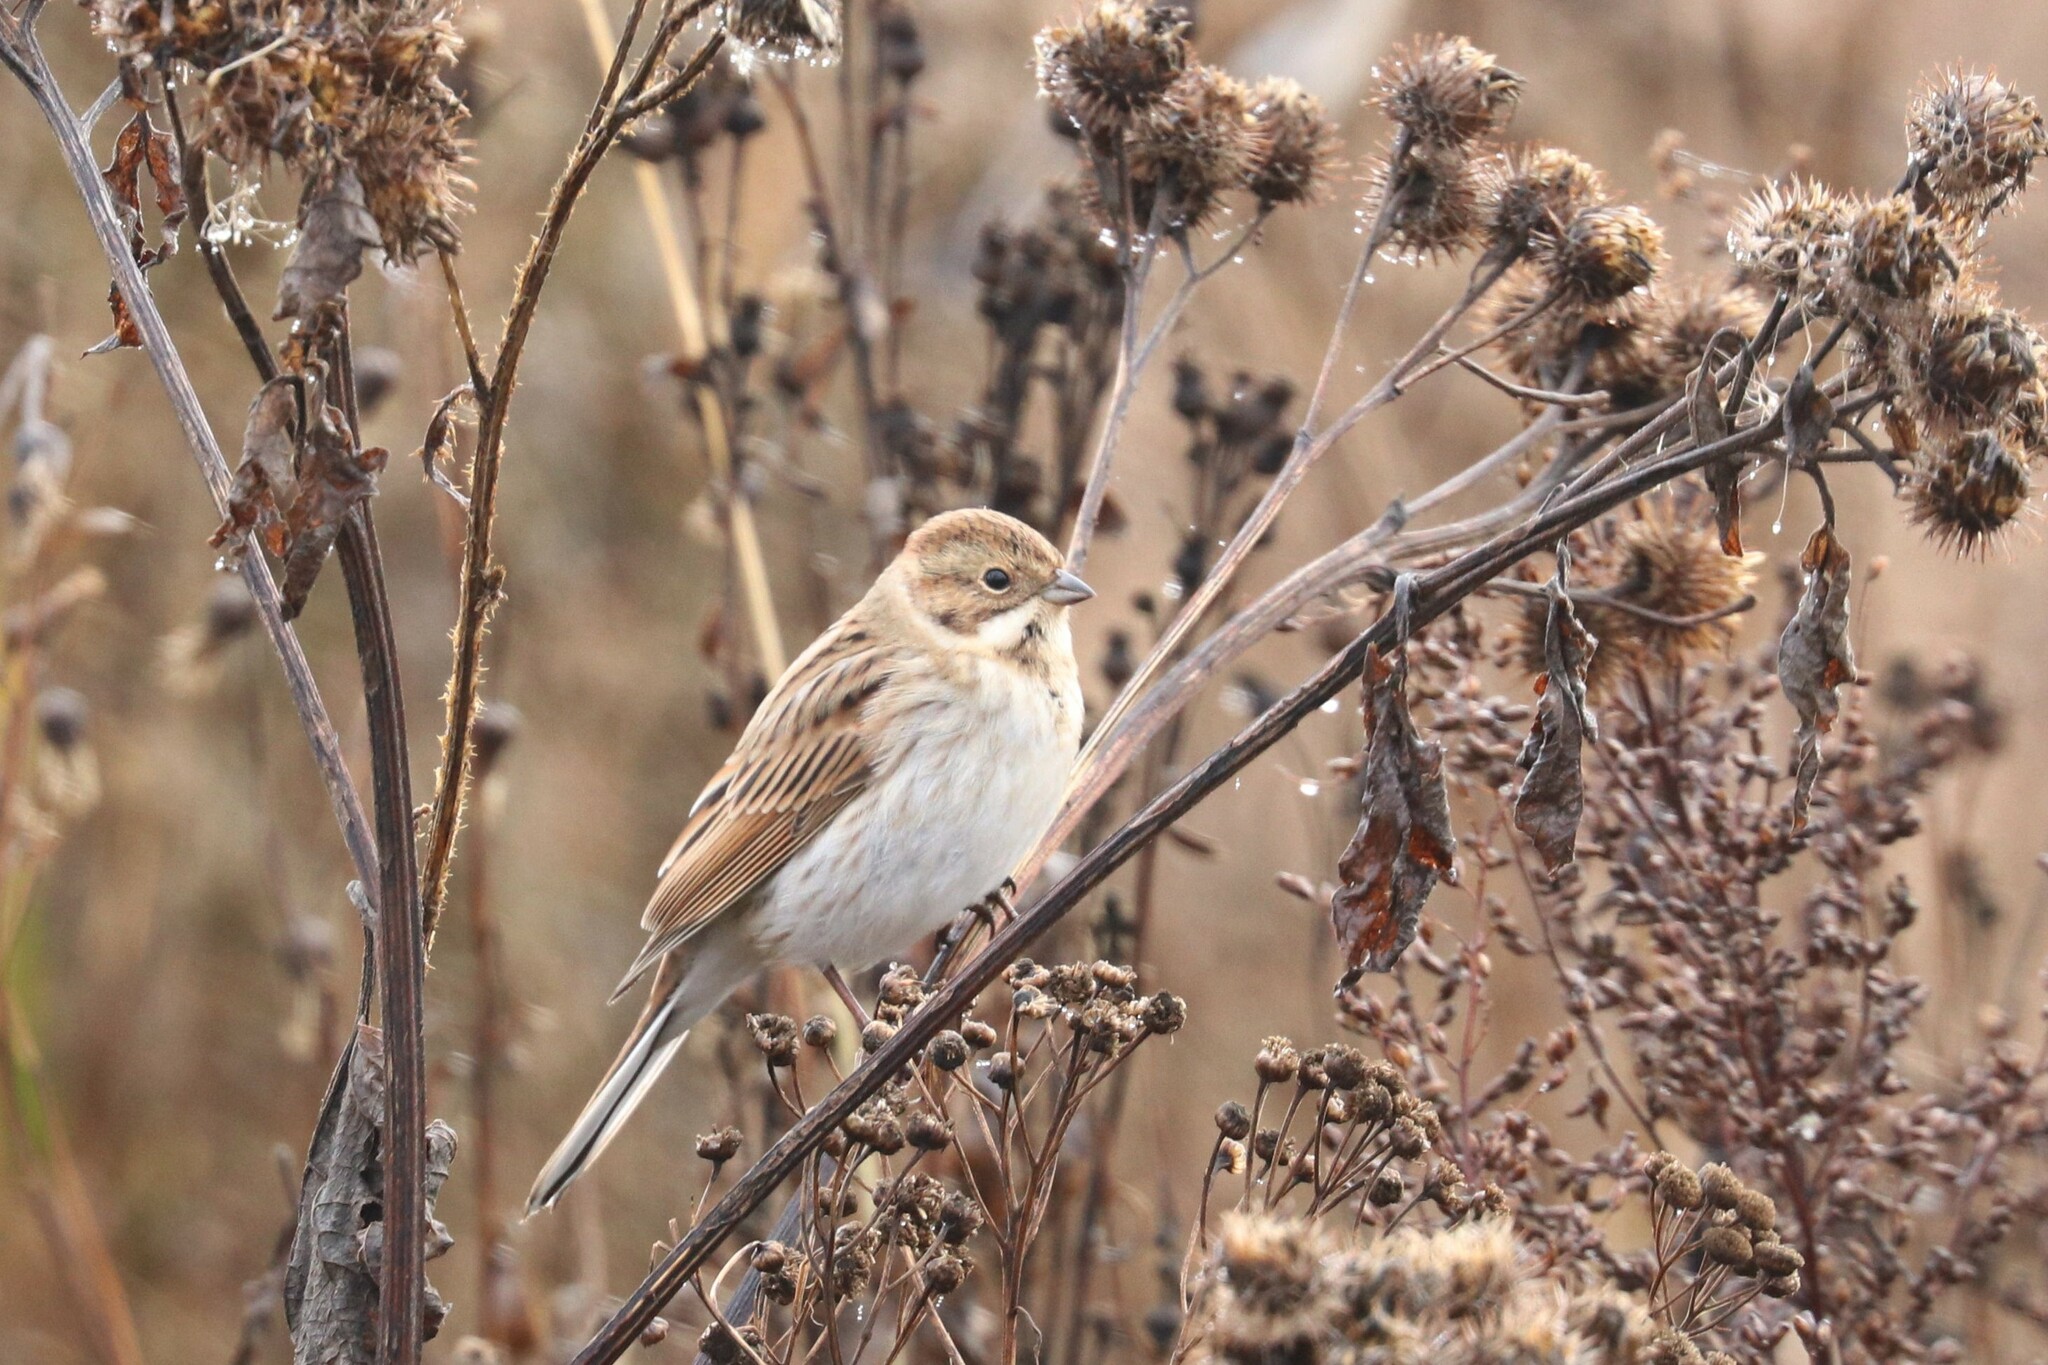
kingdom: Animalia
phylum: Chordata
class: Aves
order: Passeriformes
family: Emberizidae
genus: Emberiza
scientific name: Emberiza schoeniclus
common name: Reed bunting
